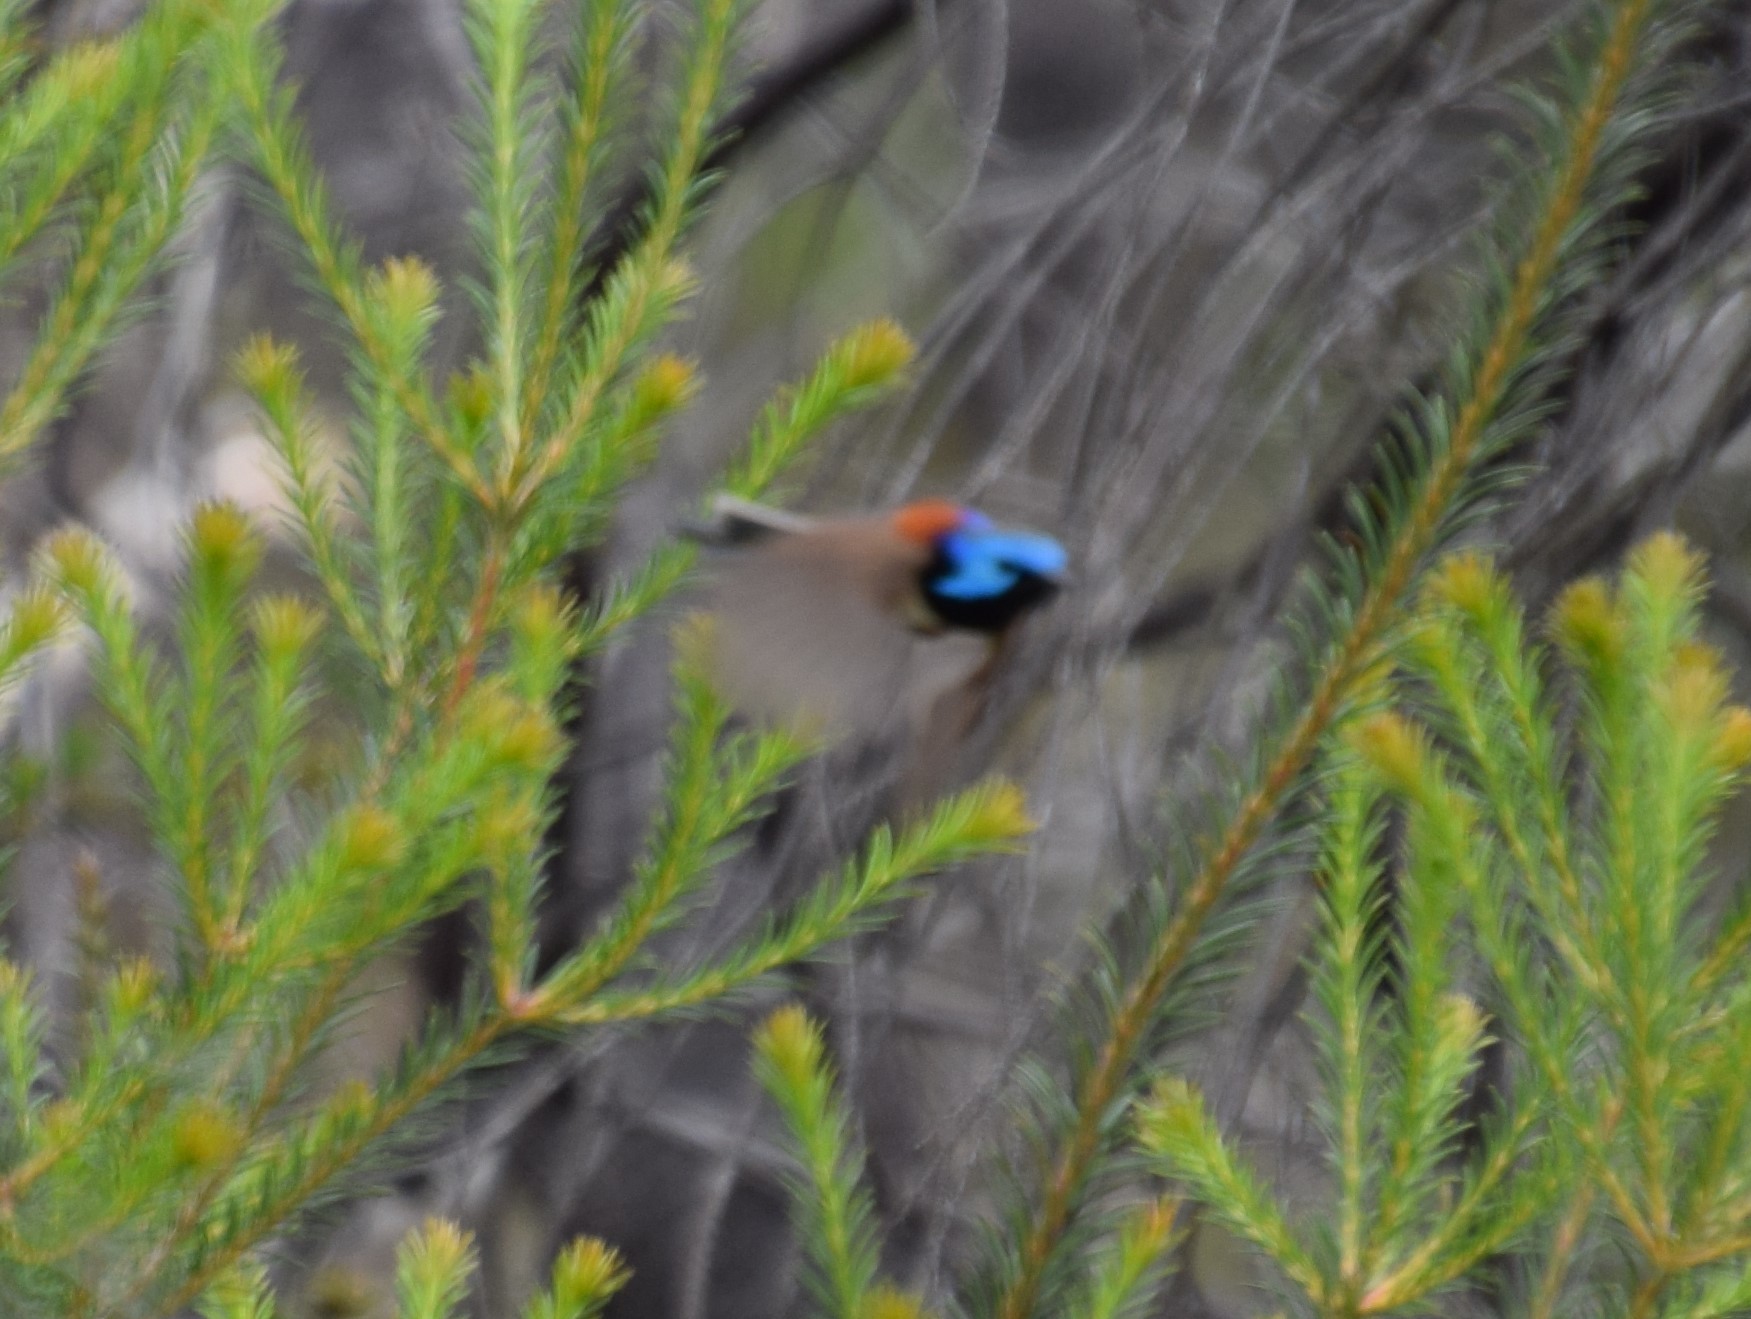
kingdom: Animalia
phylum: Chordata
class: Aves
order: Passeriformes
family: Maluridae
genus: Malurus
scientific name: Malurus lamberti
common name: Variegated fairywren
